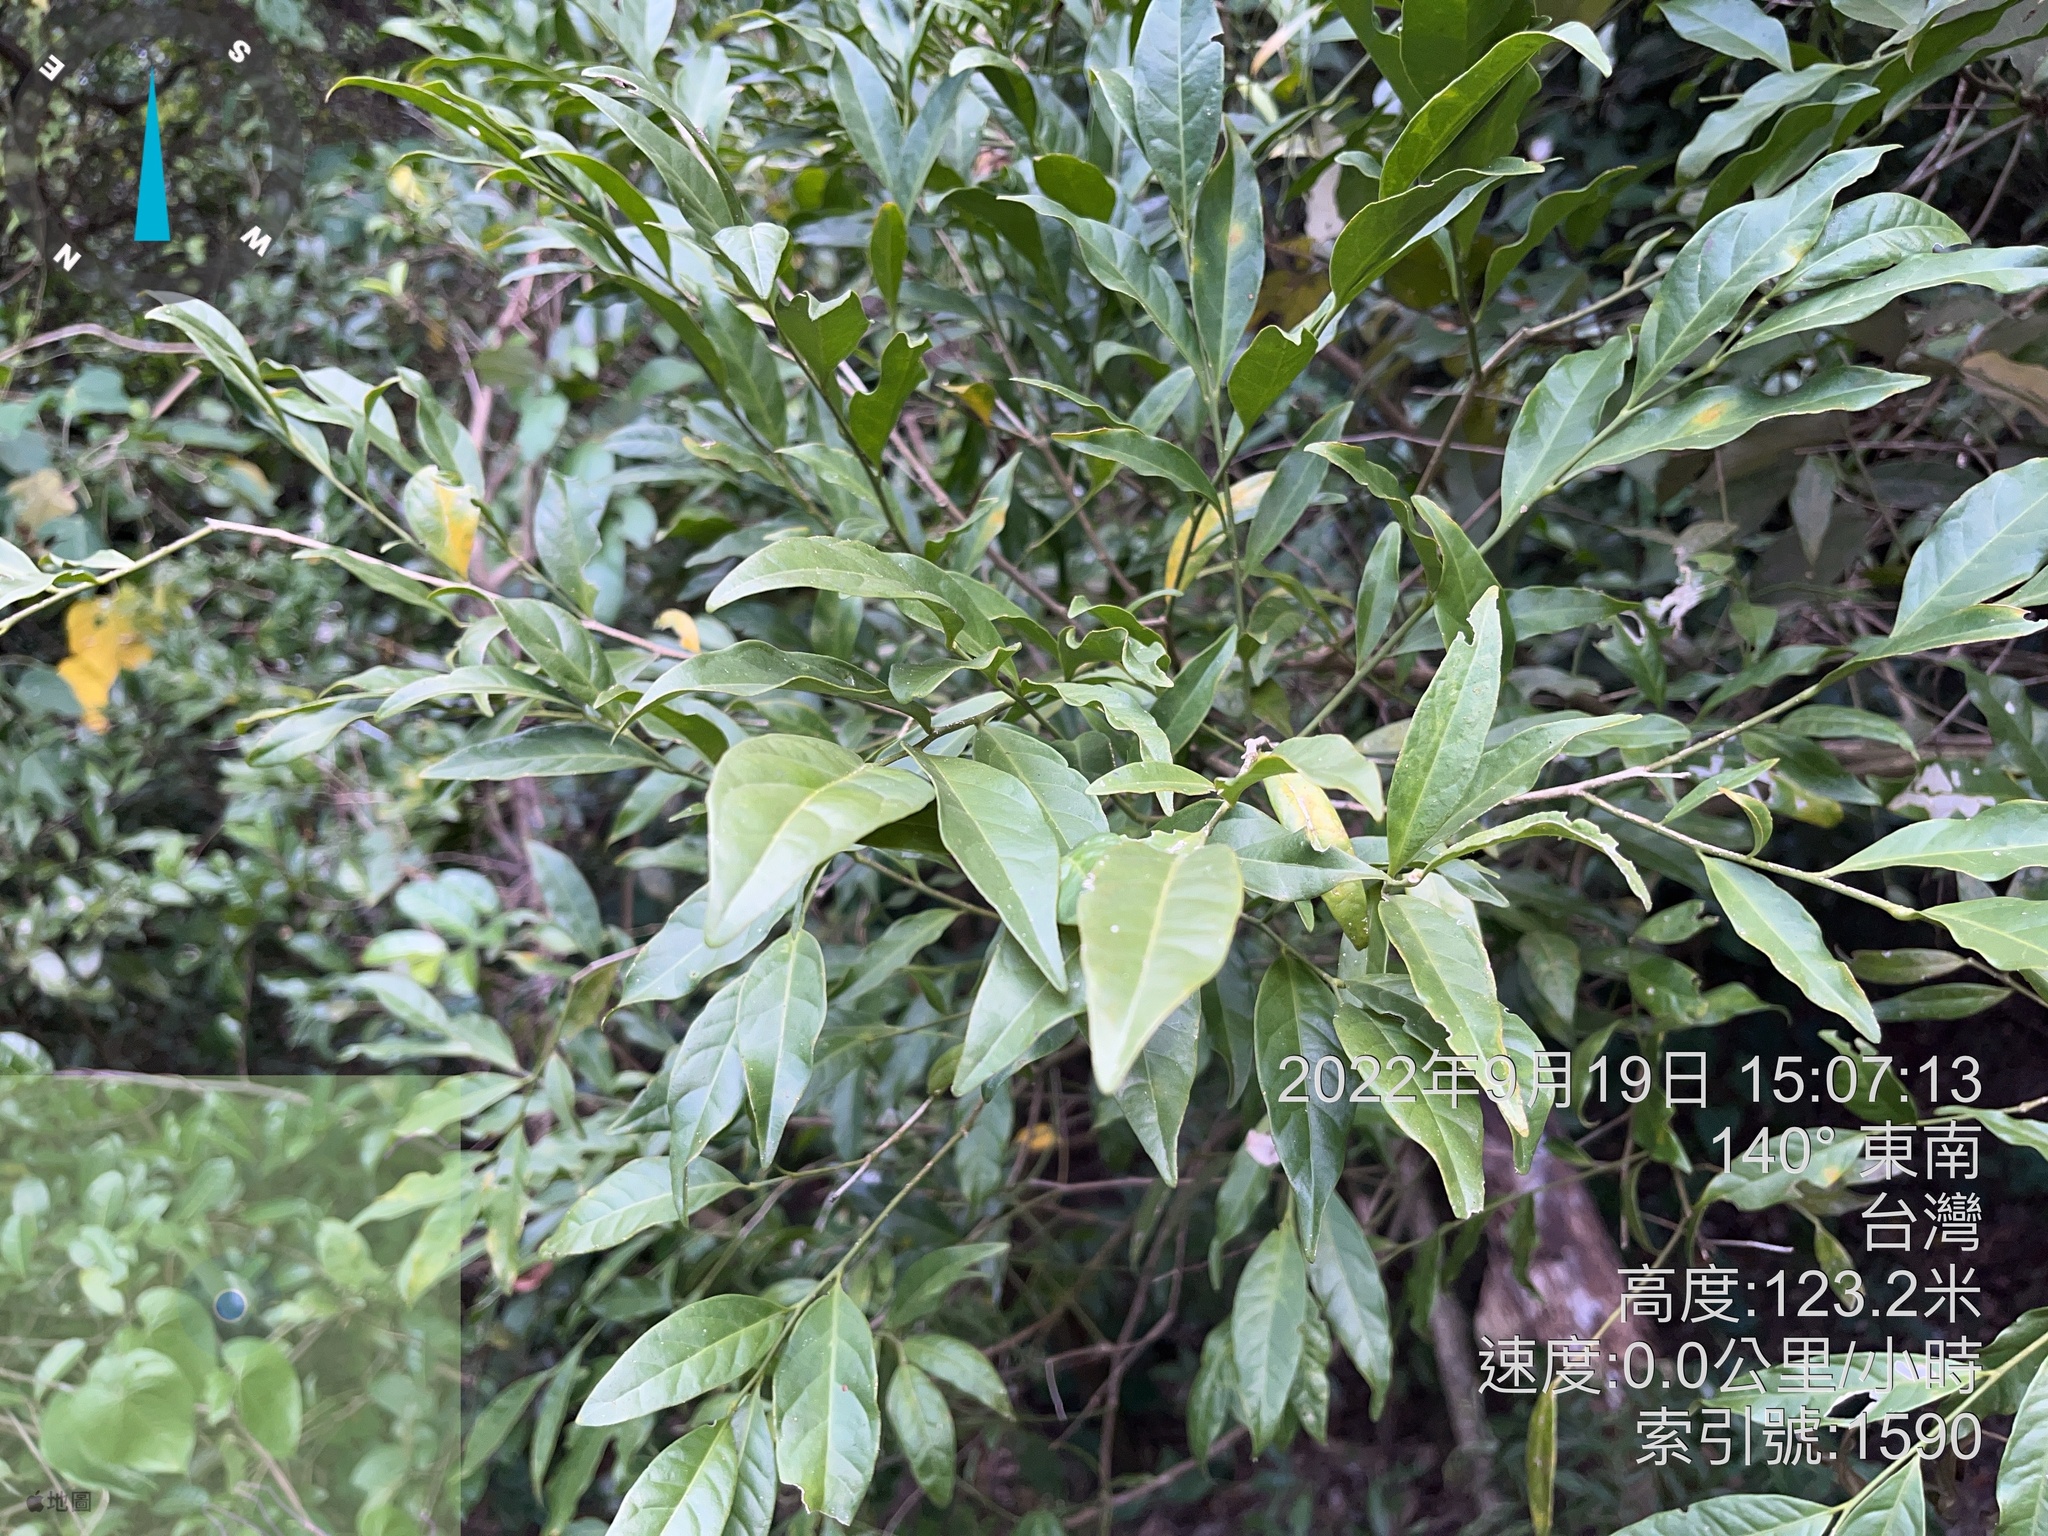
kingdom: Plantae
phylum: Tracheophyta
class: Magnoliopsida
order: Santalales
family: Opiliaceae
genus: Champereia
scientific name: Champereia manillana
